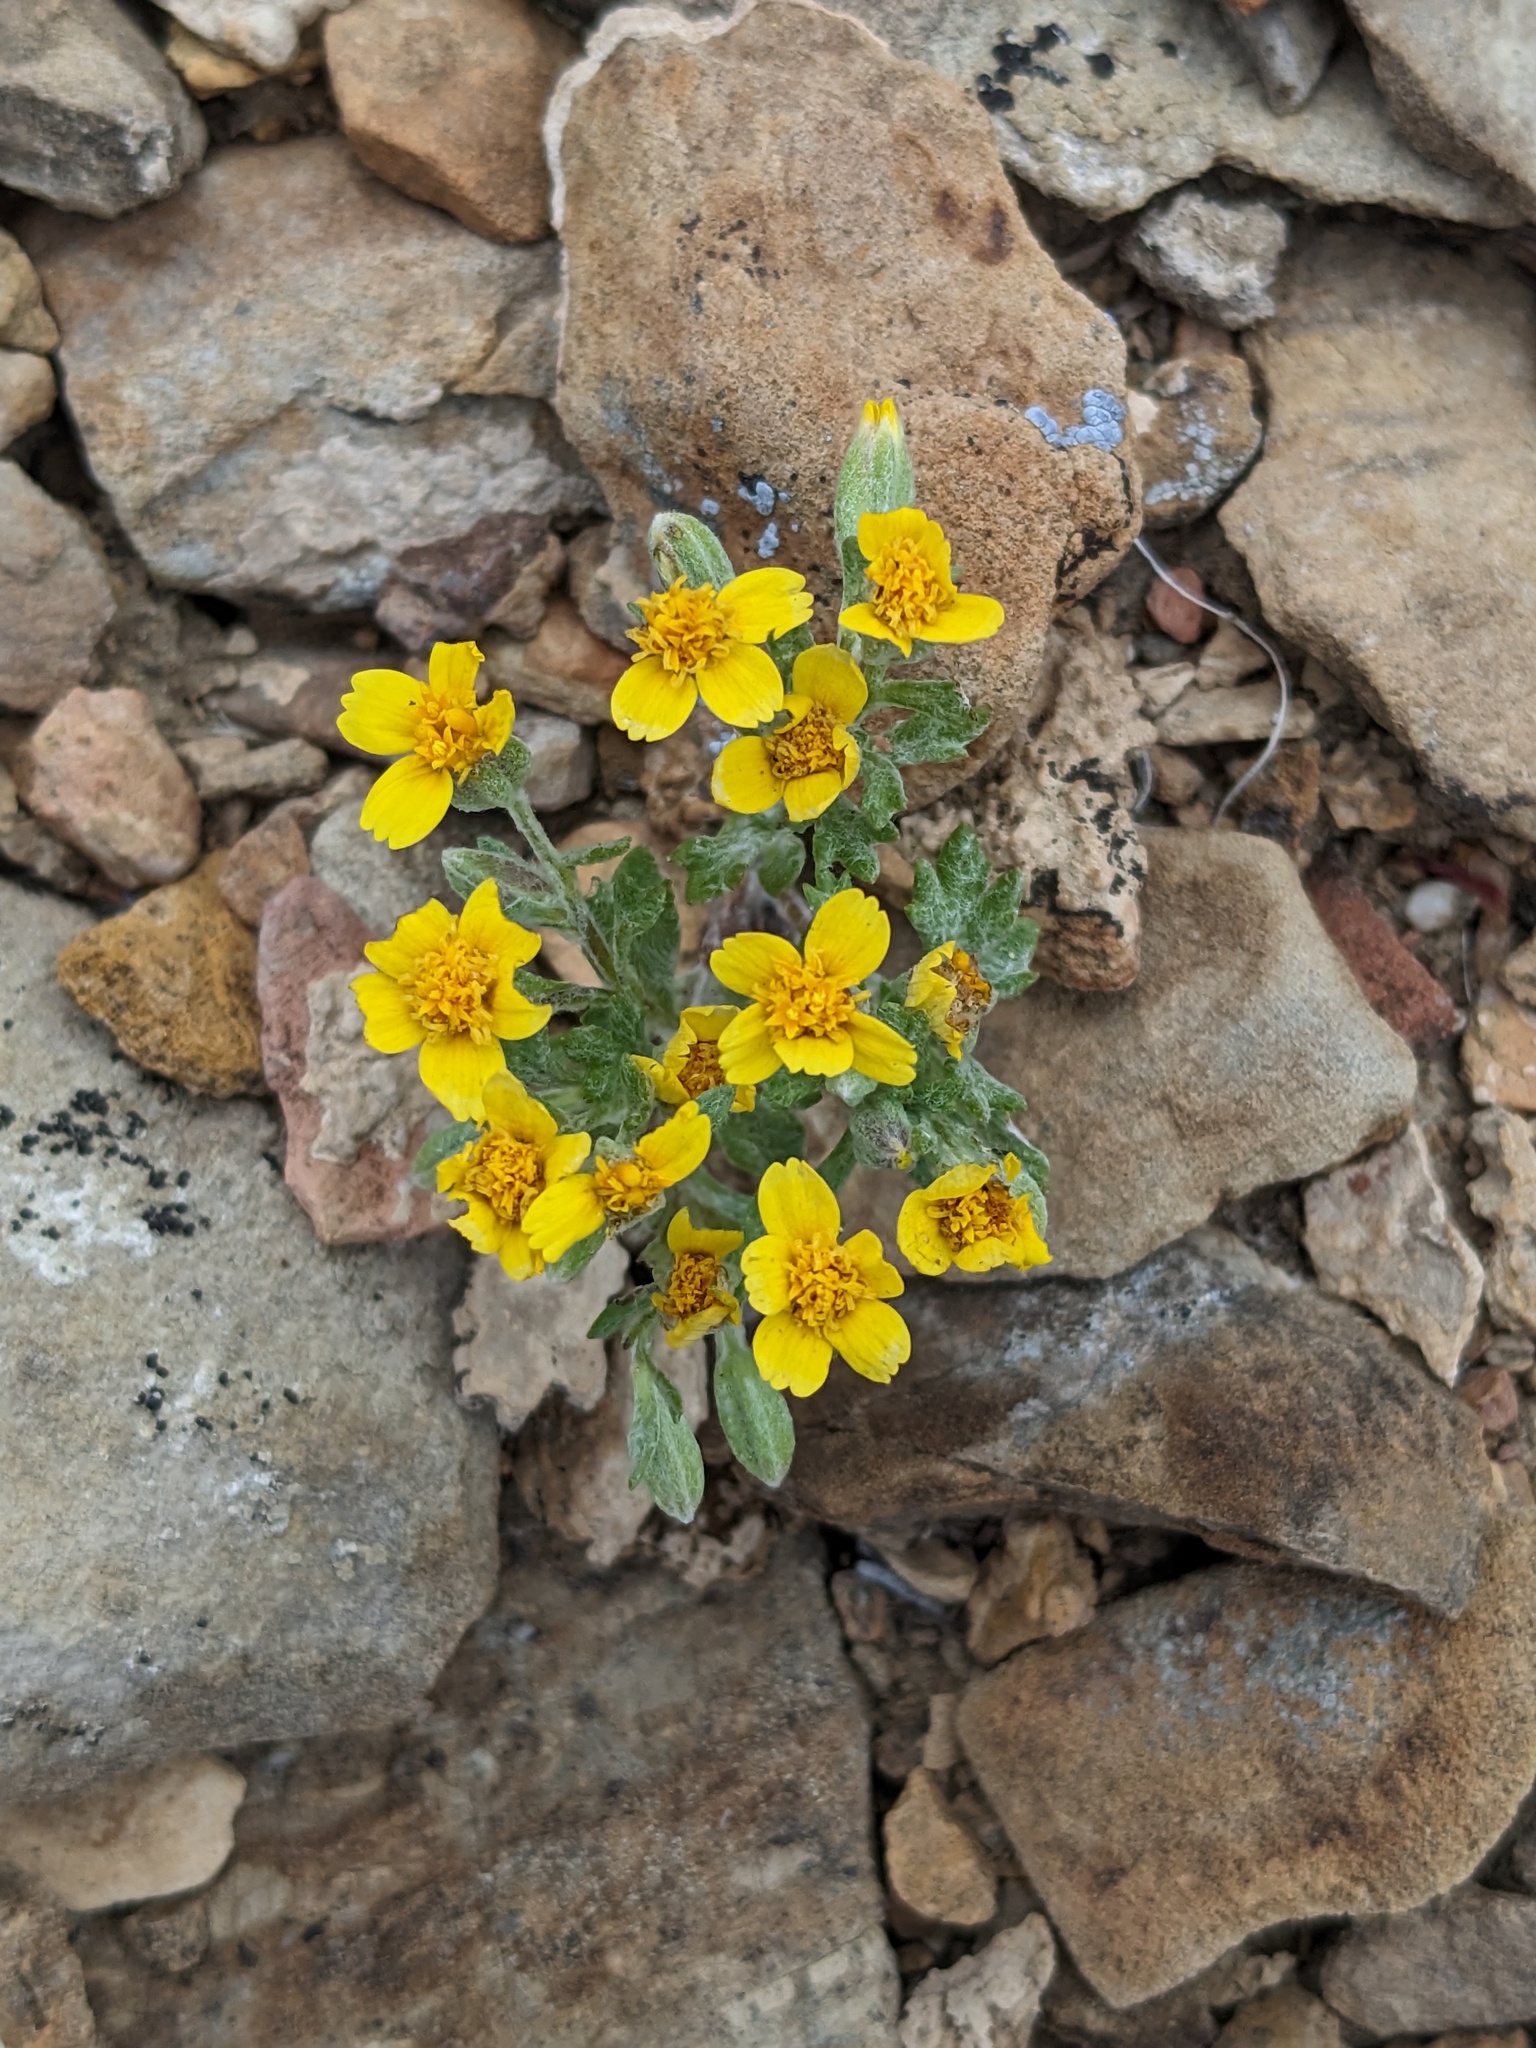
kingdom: Plantae
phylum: Tracheophyta
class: Magnoliopsida
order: Asterales
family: Asteraceae
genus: Syntrichopappus
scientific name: Syntrichopappus fremontii
